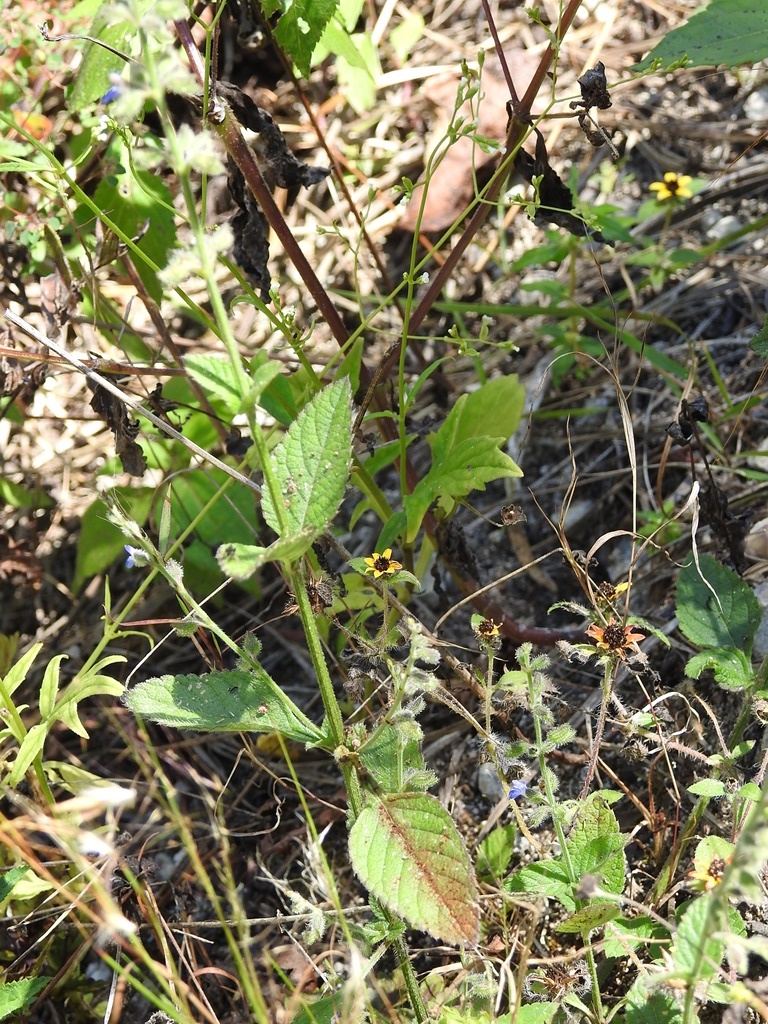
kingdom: Plantae
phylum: Tracheophyta
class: Magnoliopsida
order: Lamiales
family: Lamiaceae
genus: Salvia
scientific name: Salvia misella
